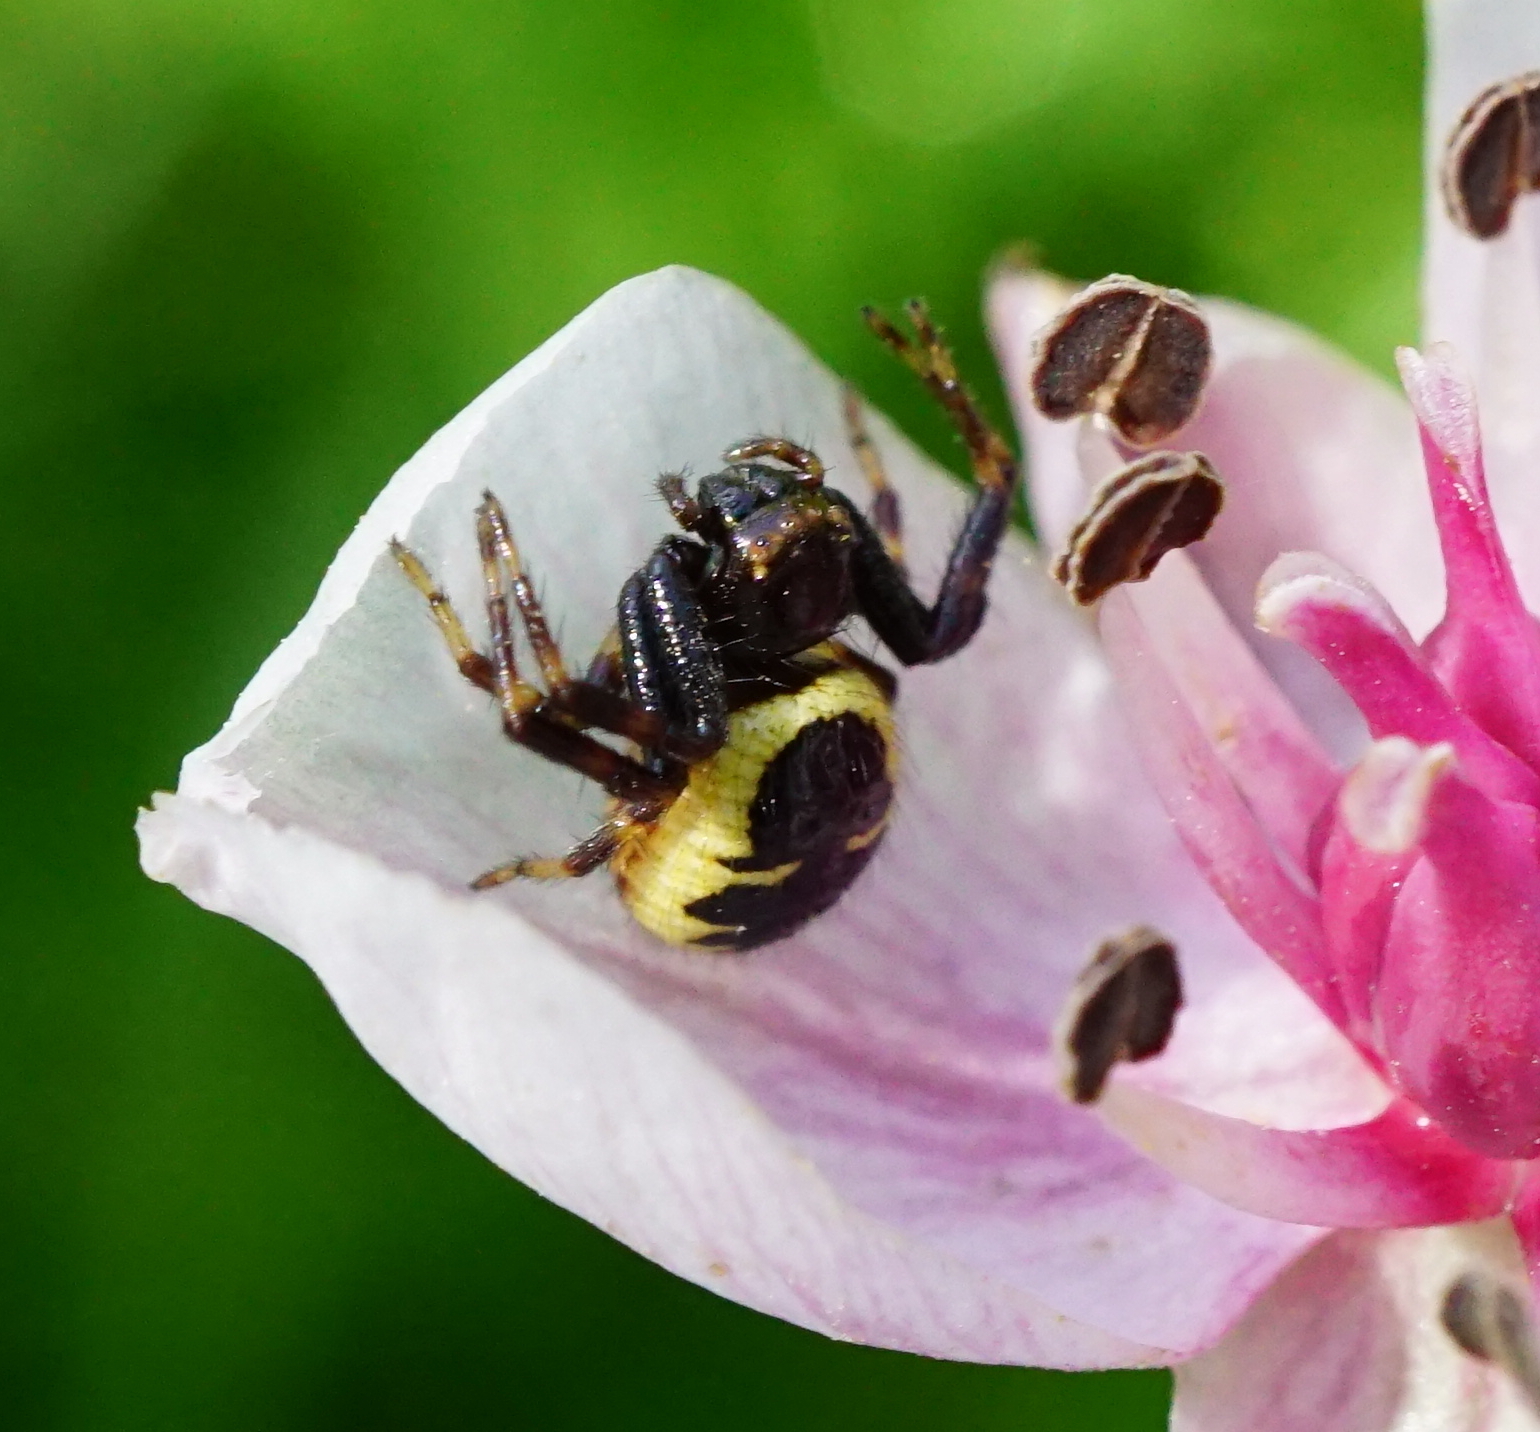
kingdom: Animalia
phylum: Arthropoda
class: Arachnida
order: Araneae
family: Thomisidae
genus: Synema
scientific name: Synema globosum
